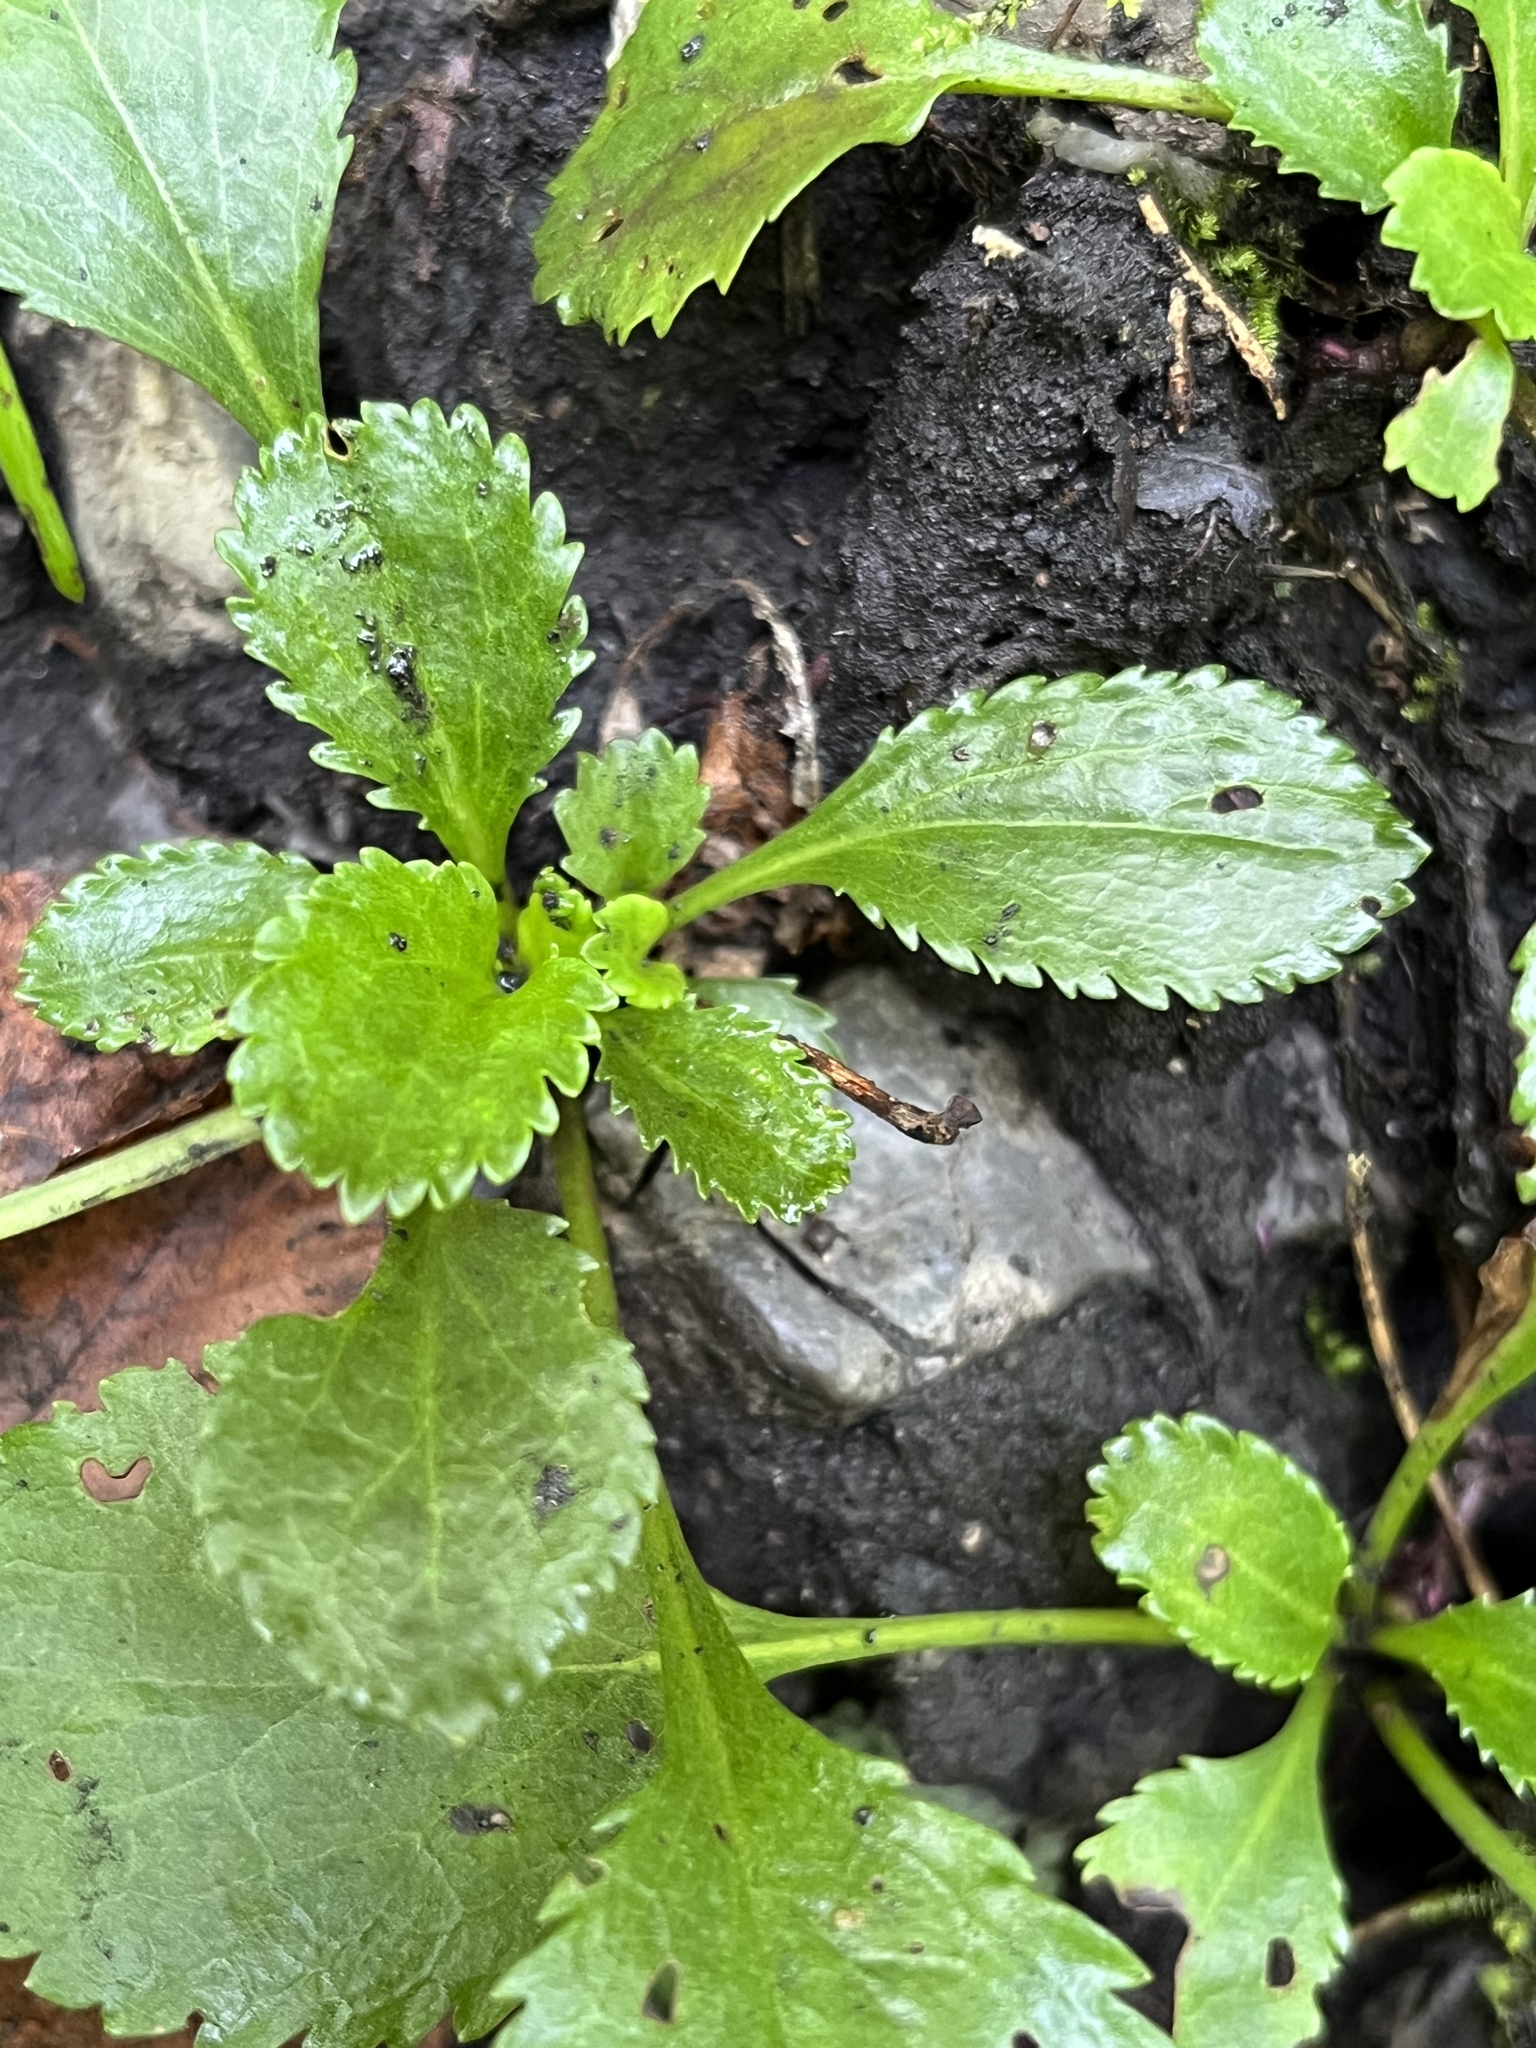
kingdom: Plantae
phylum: Tracheophyta
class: Magnoliopsida
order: Asterales
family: Asteraceae
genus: Packera
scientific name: Packera obovata
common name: Round-leaf ragwort
